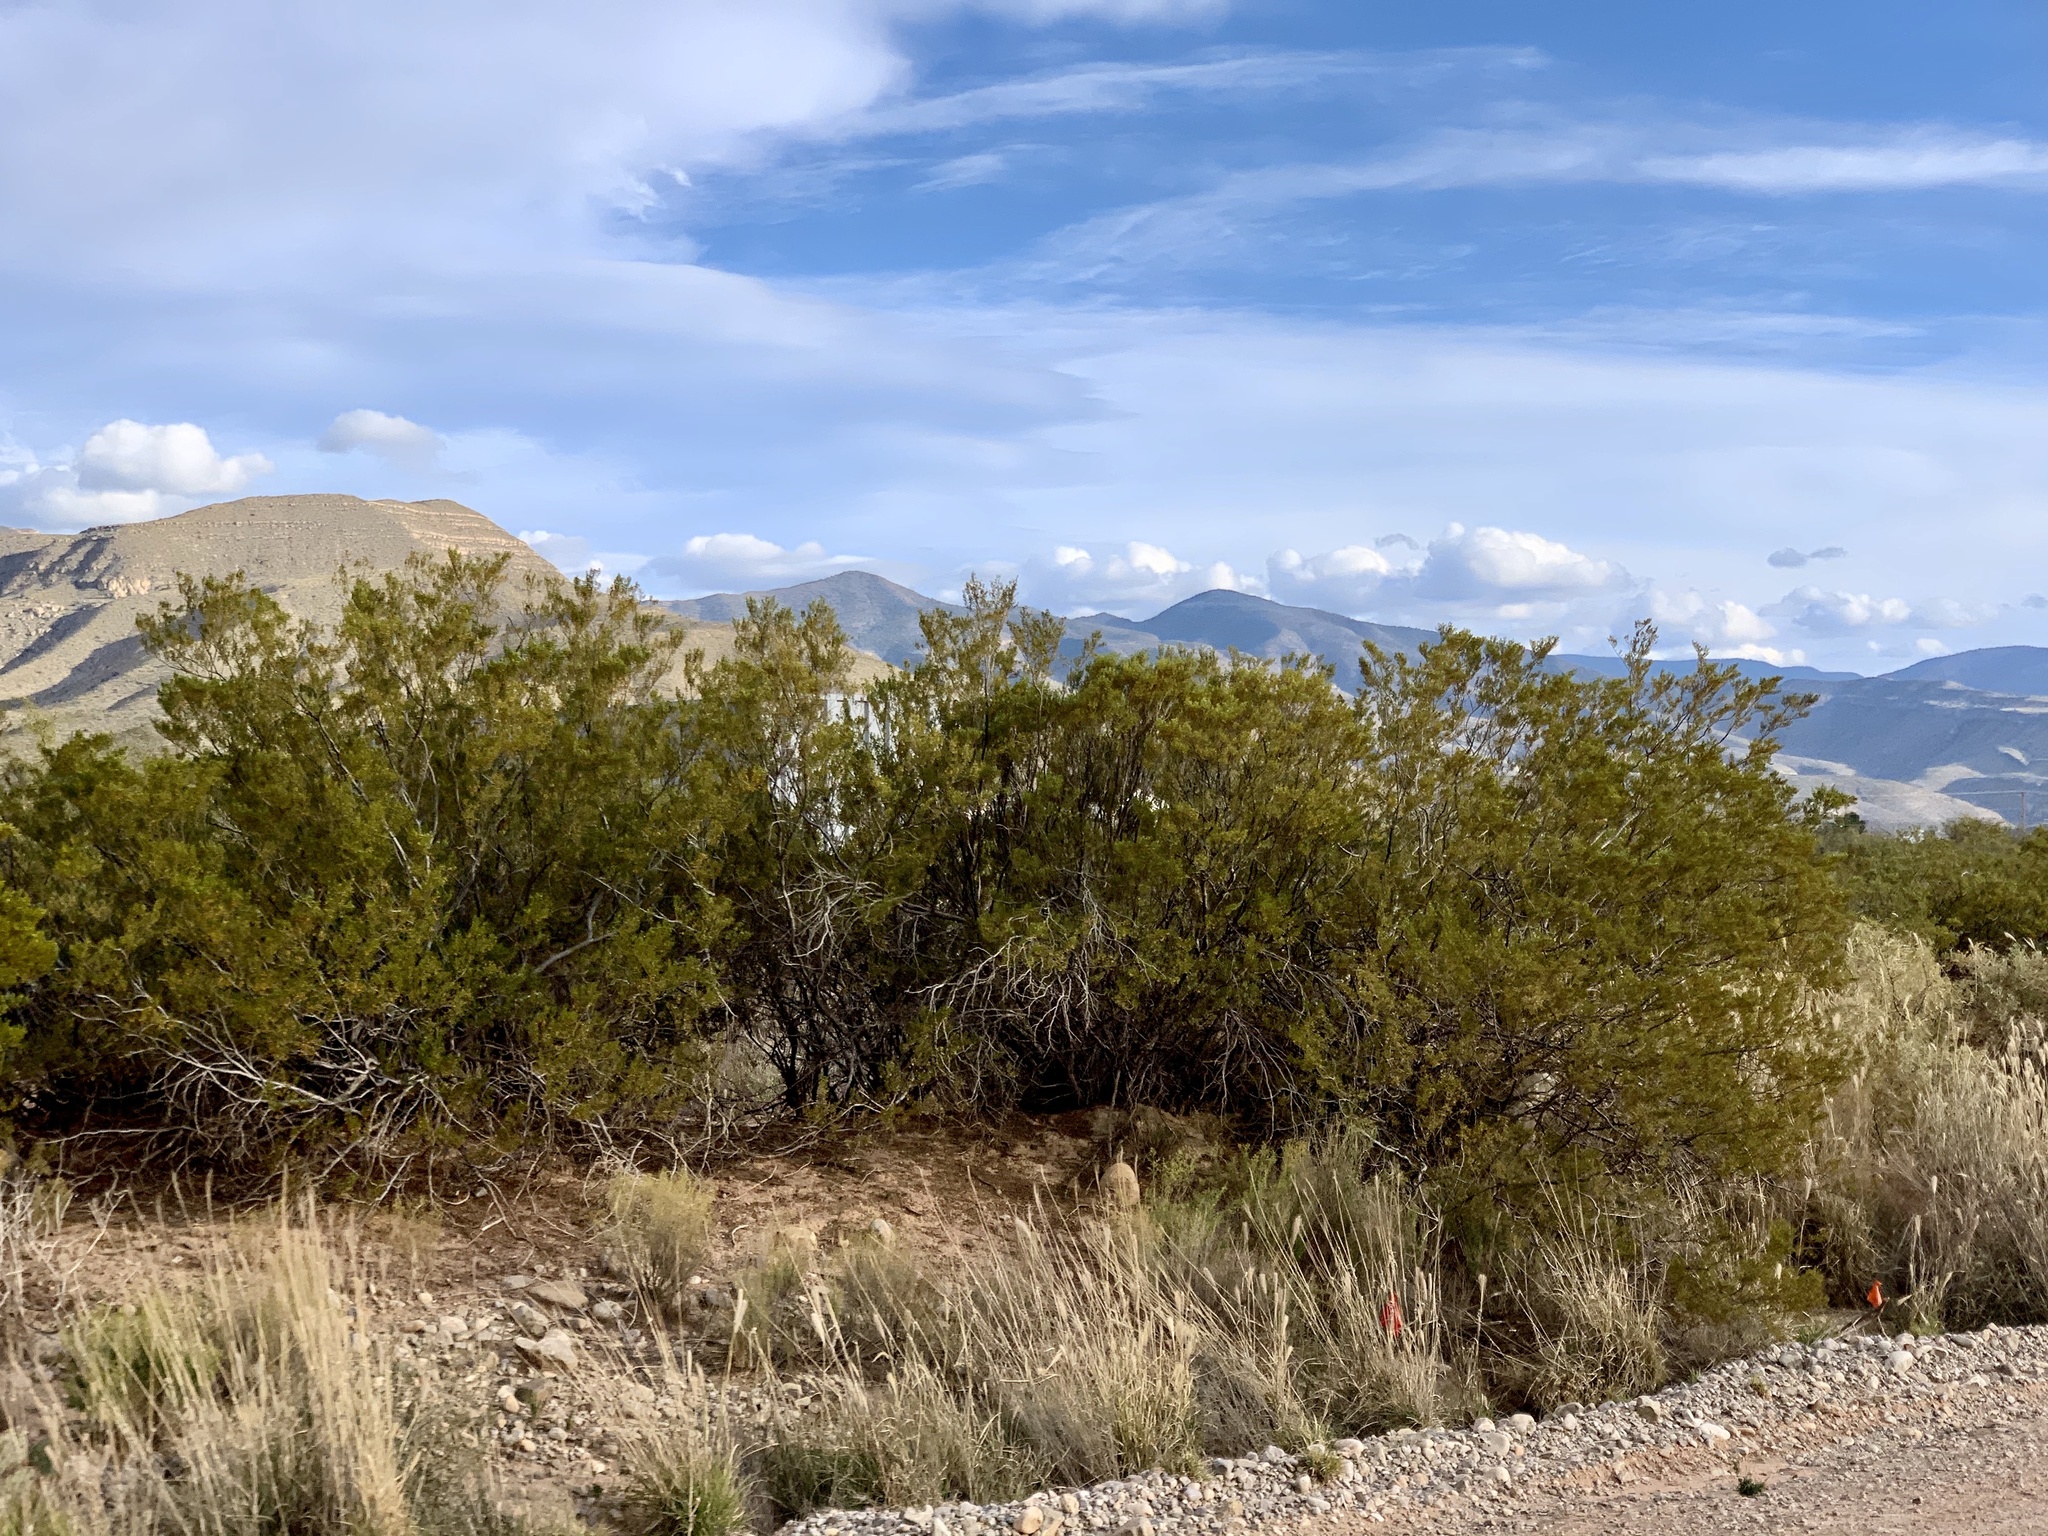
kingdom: Plantae
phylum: Tracheophyta
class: Magnoliopsida
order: Zygophyllales
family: Zygophyllaceae
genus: Larrea
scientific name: Larrea tridentata
